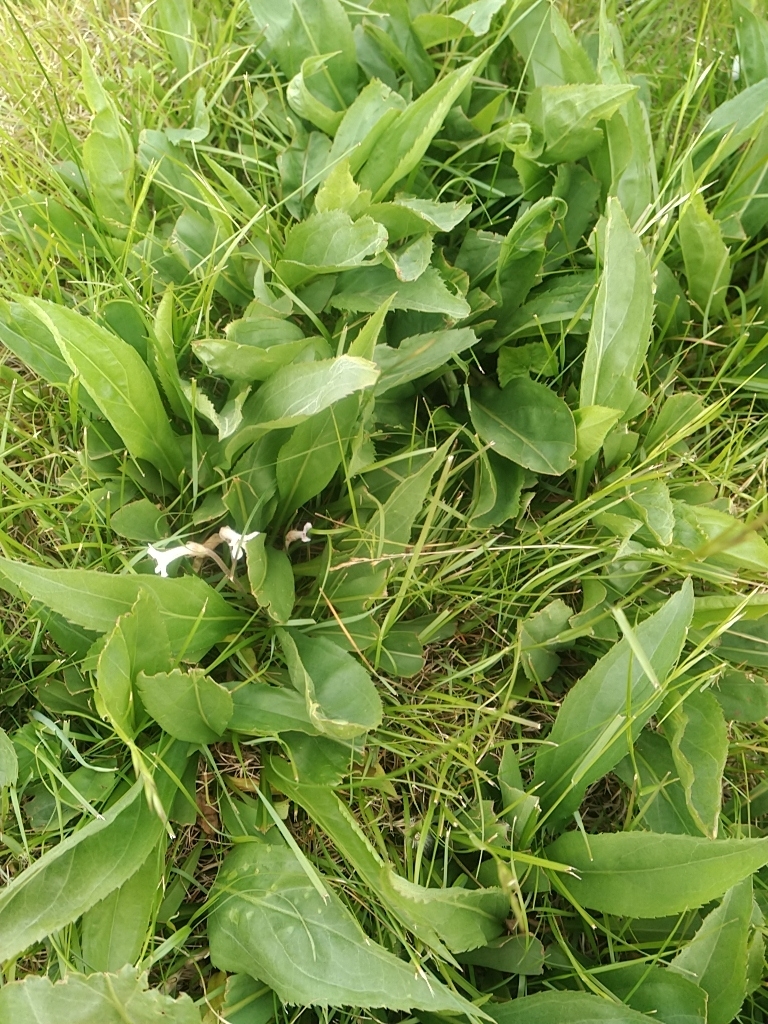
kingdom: Plantae
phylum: Tracheophyta
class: Magnoliopsida
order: Lamiales
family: Orobanchaceae
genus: Aphyllon
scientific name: Aphyllon uniflorum
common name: One-flowered broomrape
